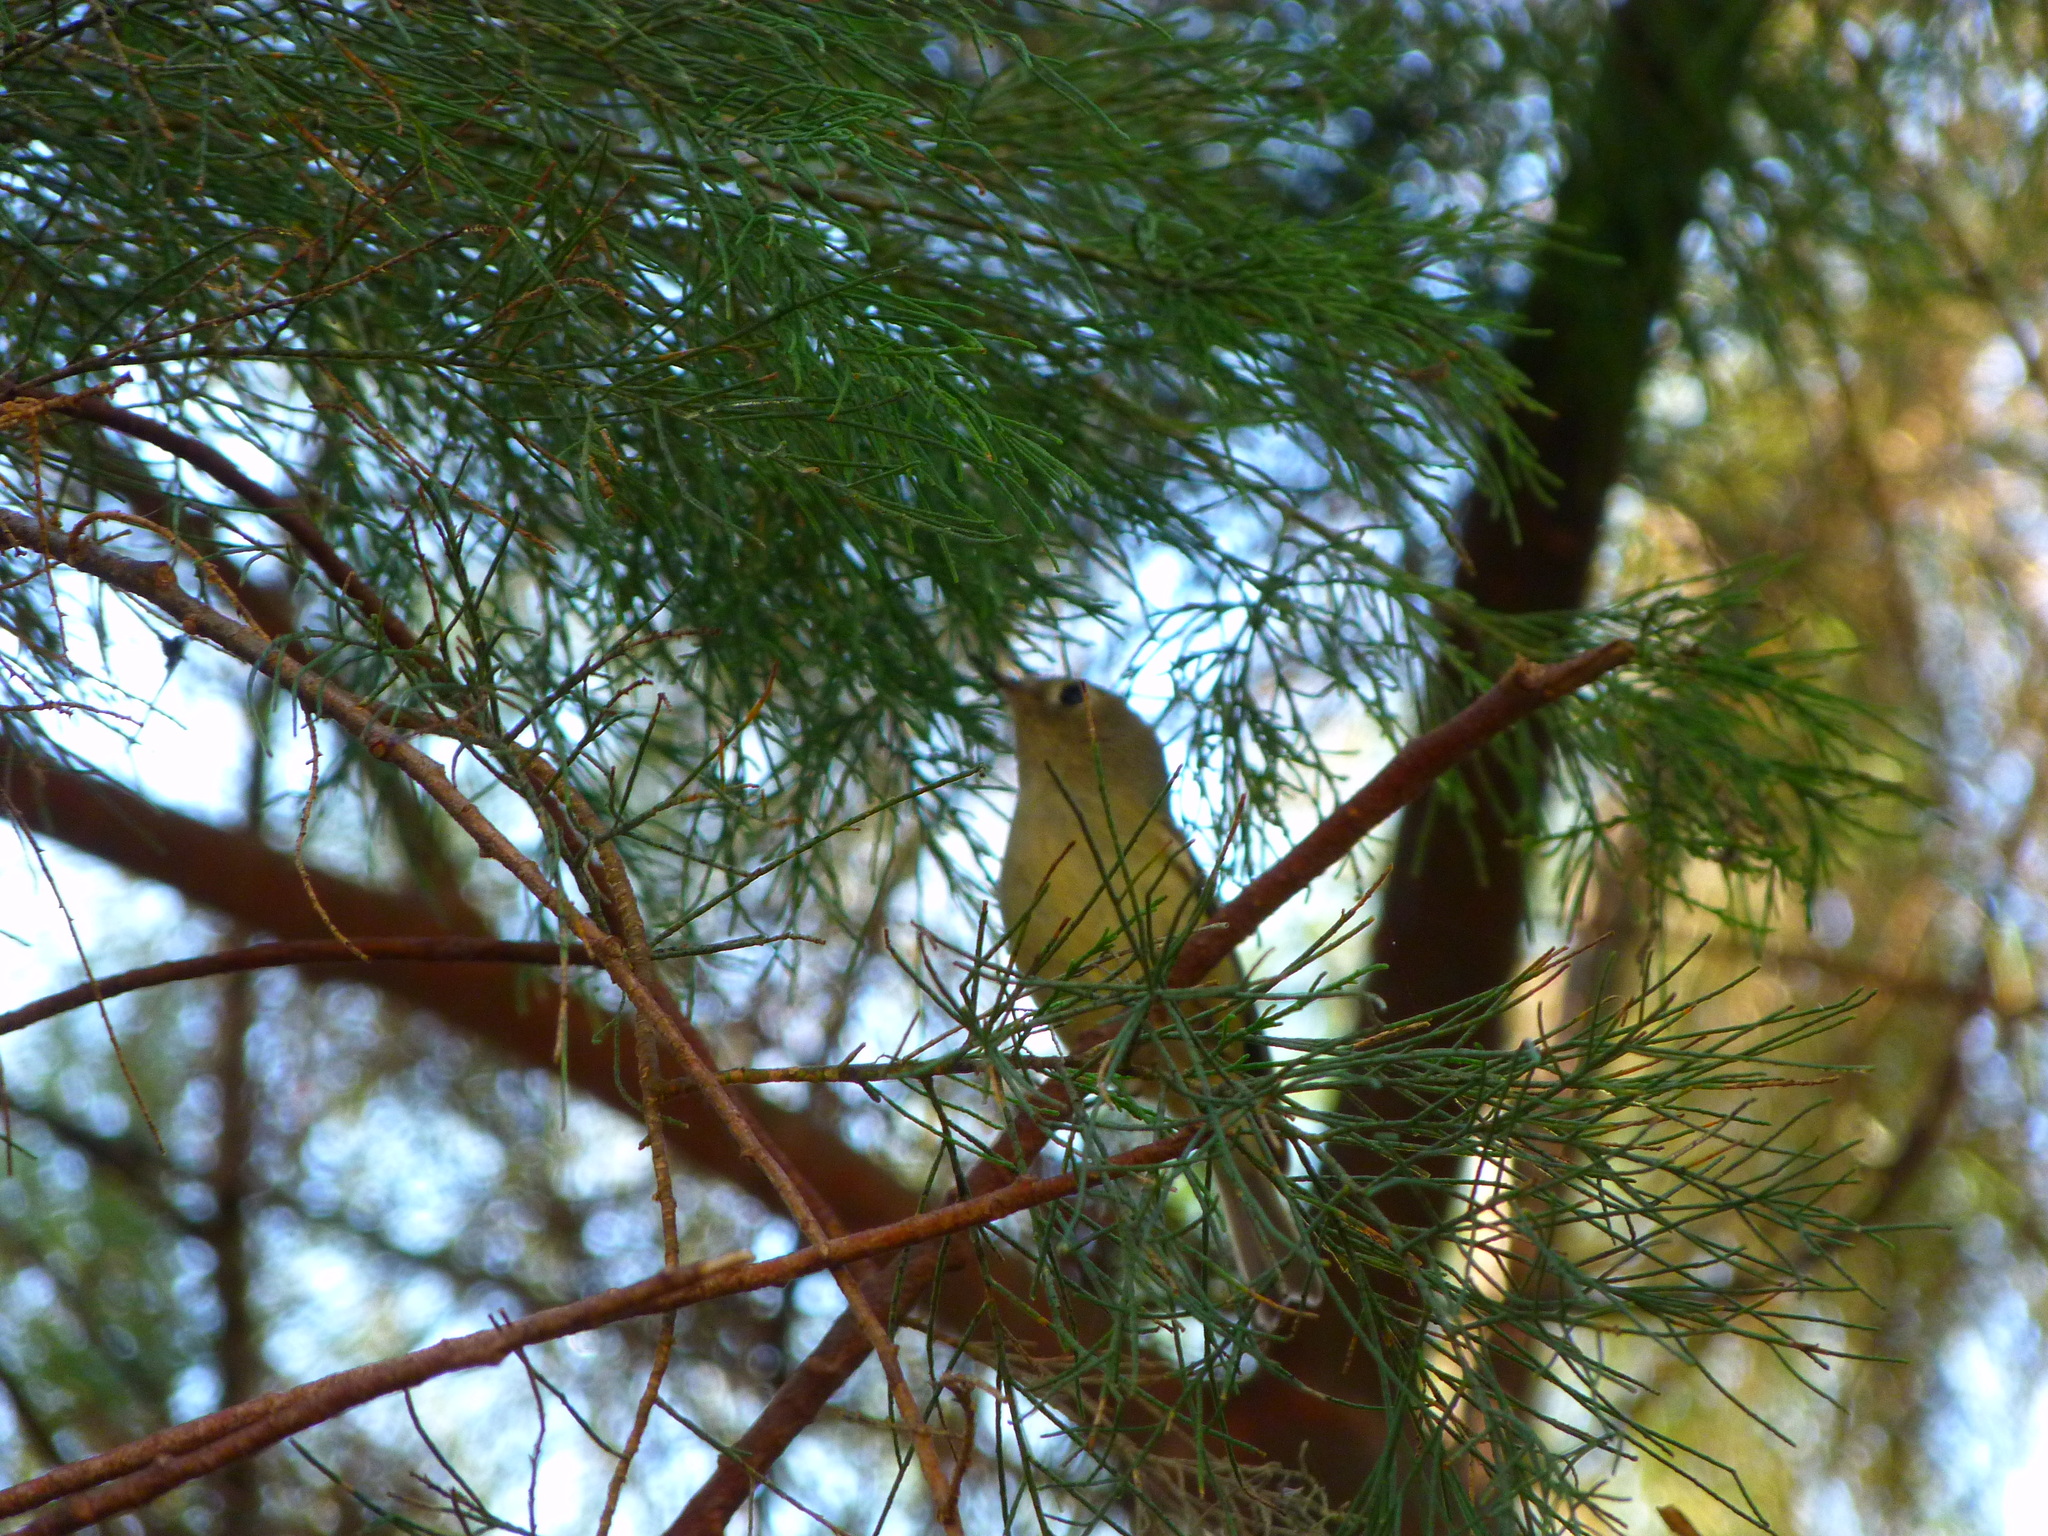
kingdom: Animalia
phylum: Chordata
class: Aves
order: Passeriformes
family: Regulidae
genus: Regulus
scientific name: Regulus calendula
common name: Ruby-crowned kinglet
